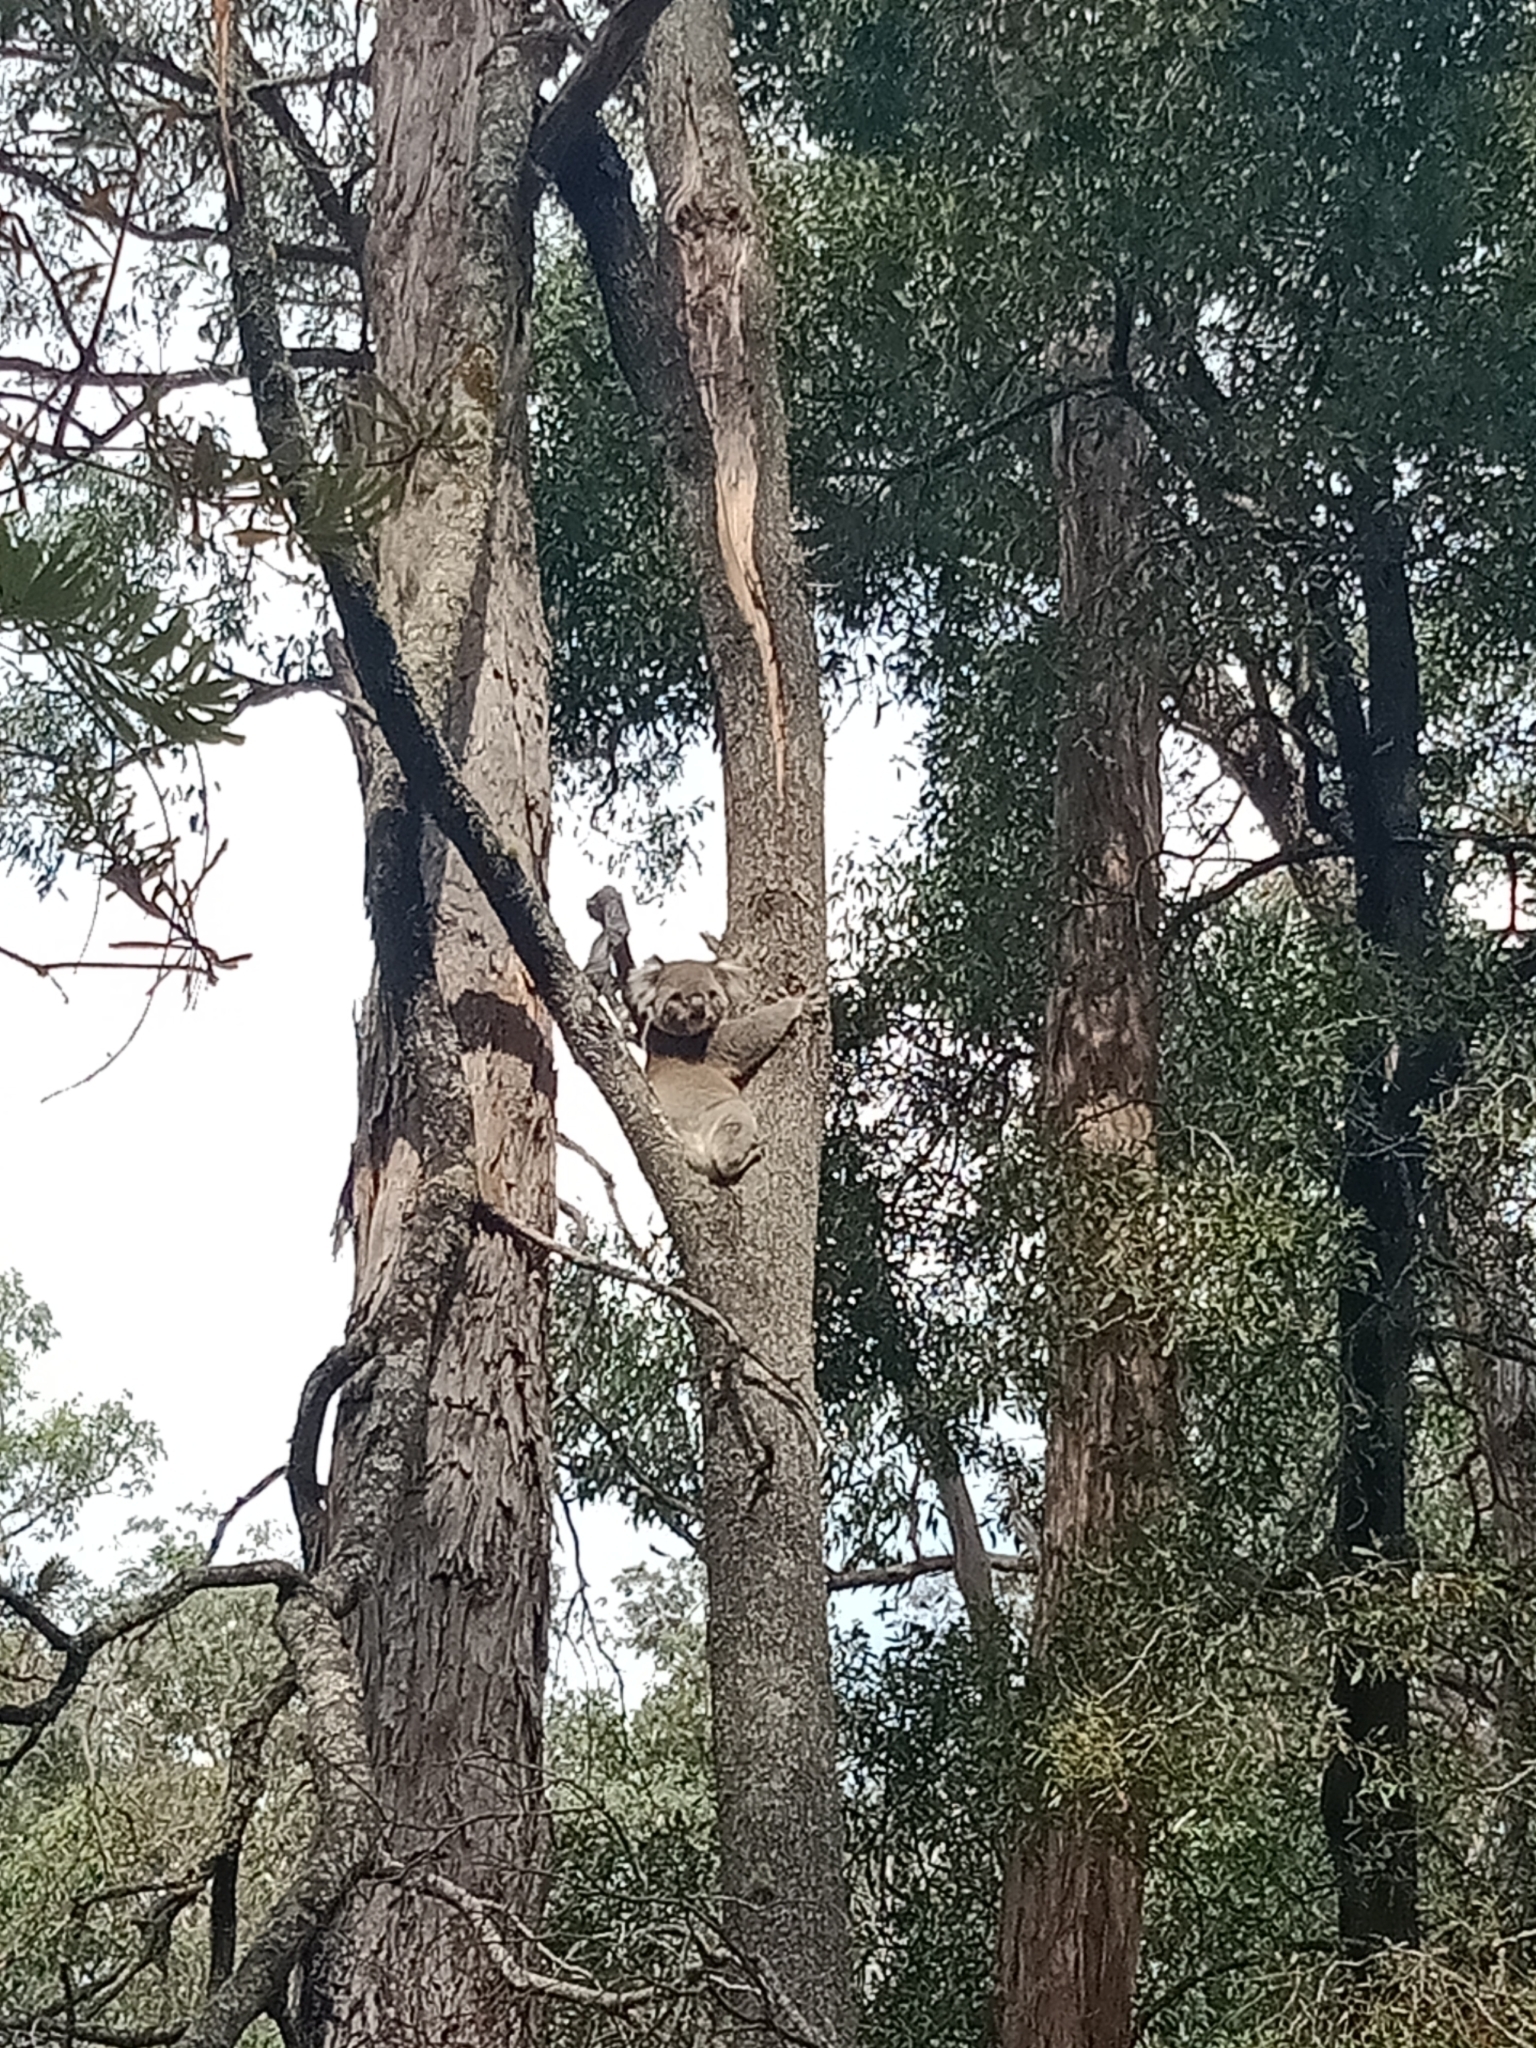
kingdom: Animalia
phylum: Chordata
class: Mammalia
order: Diprotodontia
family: Phascolarctidae
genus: Phascolarctos
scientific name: Phascolarctos cinereus
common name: Koala
